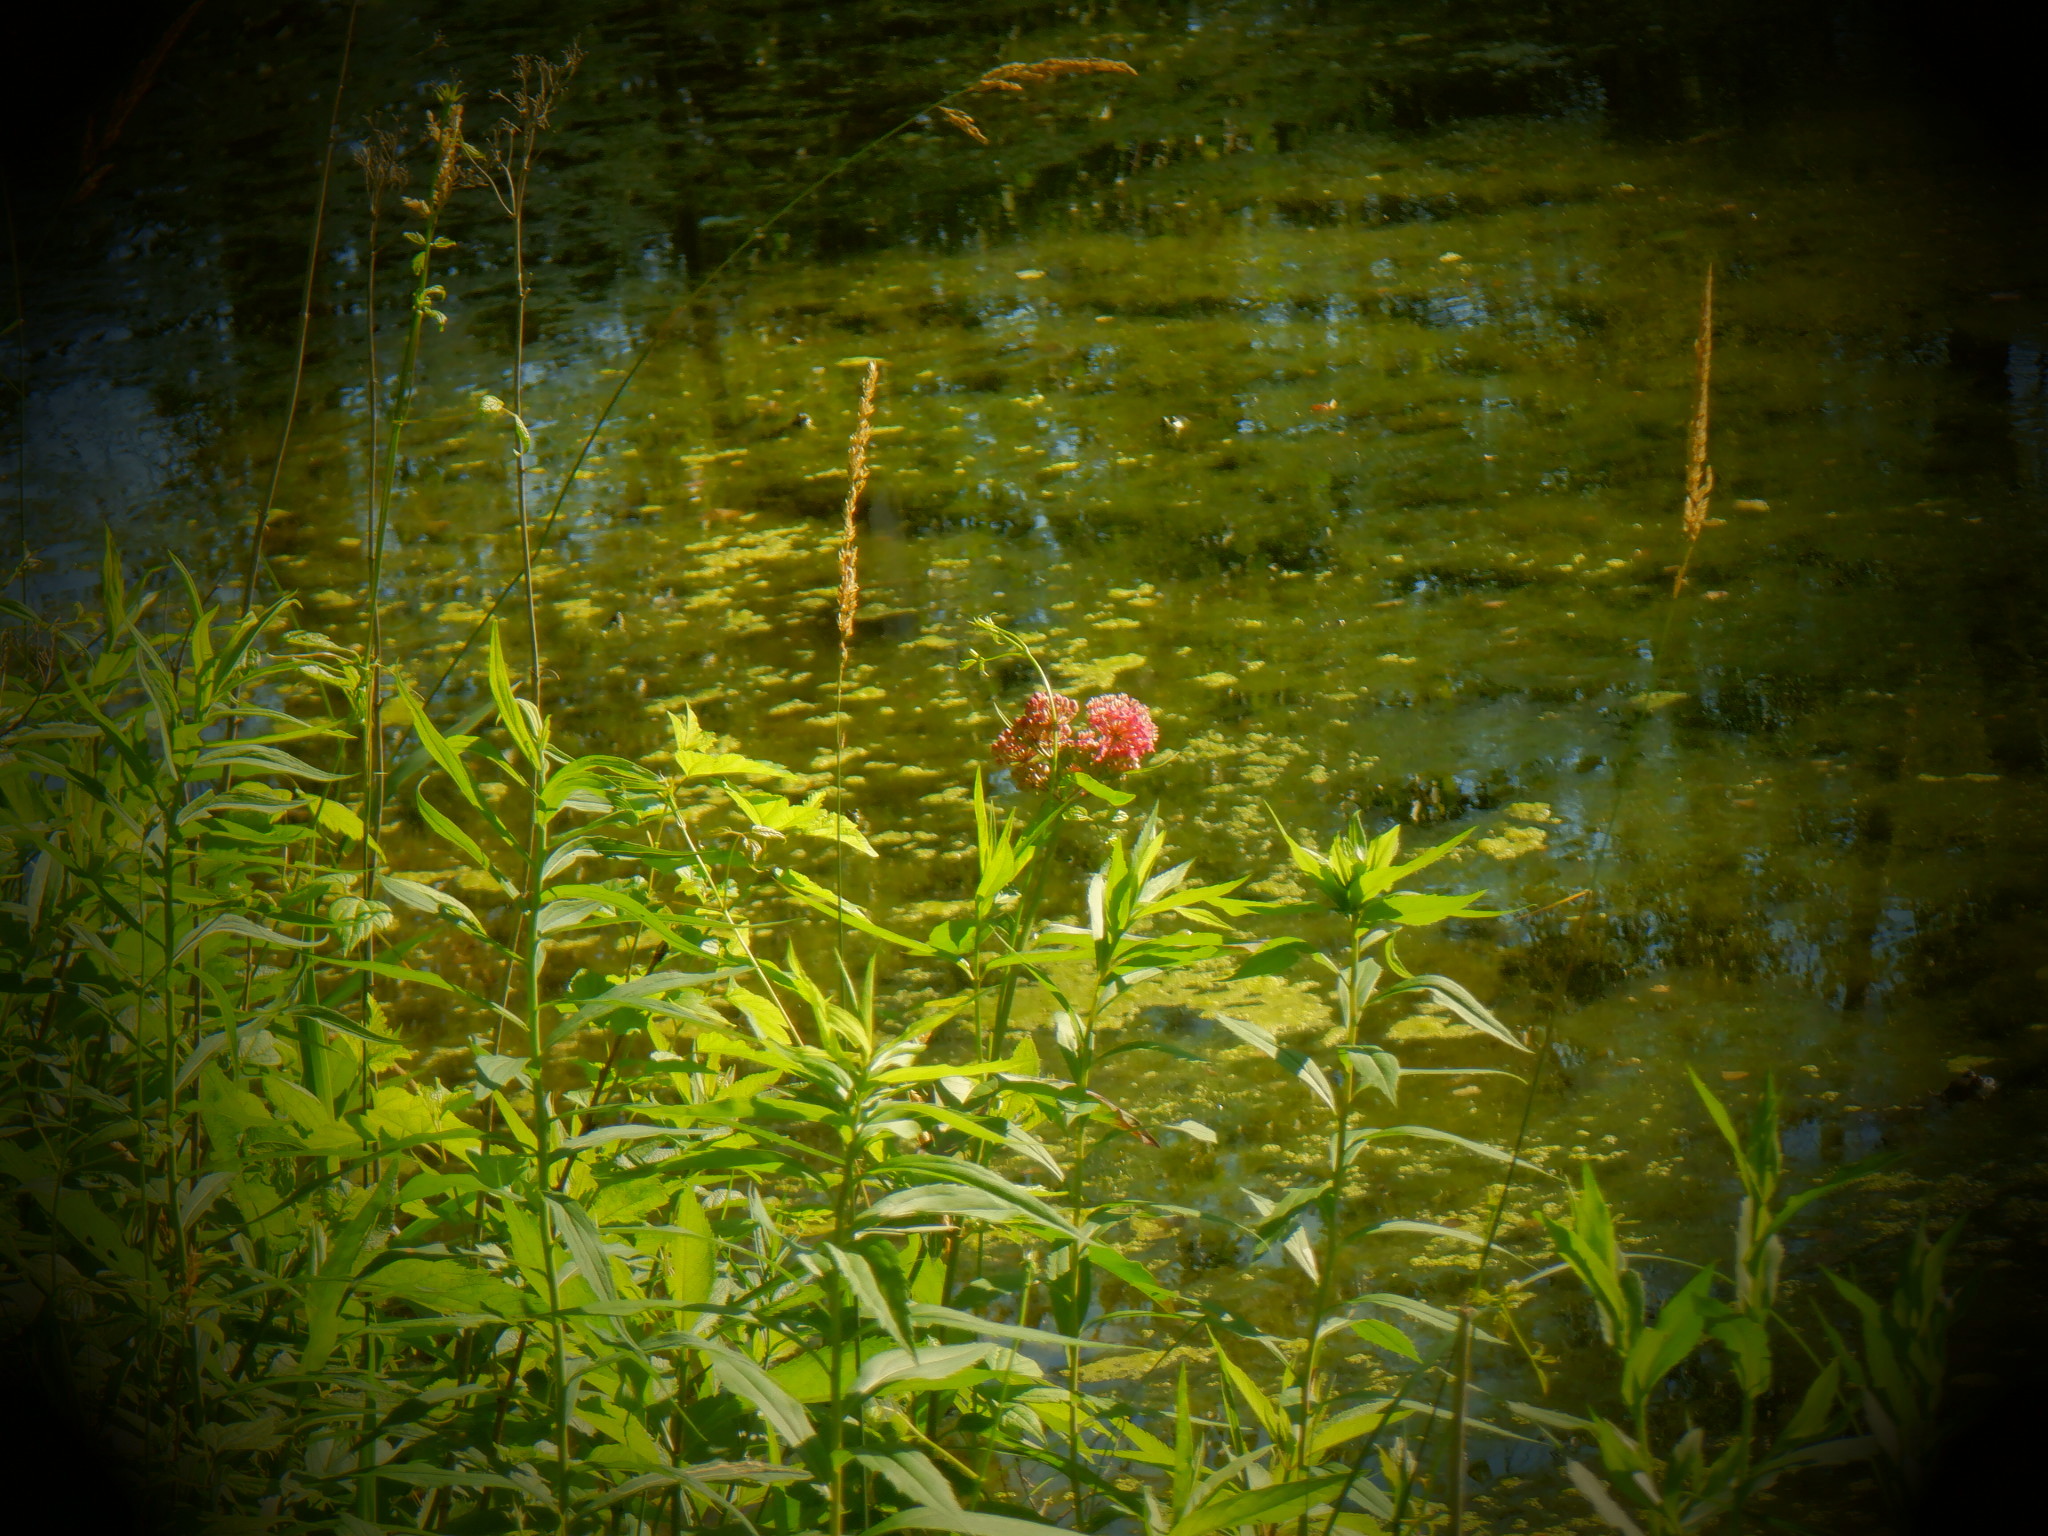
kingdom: Plantae
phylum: Tracheophyta
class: Magnoliopsida
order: Gentianales
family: Apocynaceae
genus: Asclepias
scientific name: Asclepias incarnata
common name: Swamp milkweed
